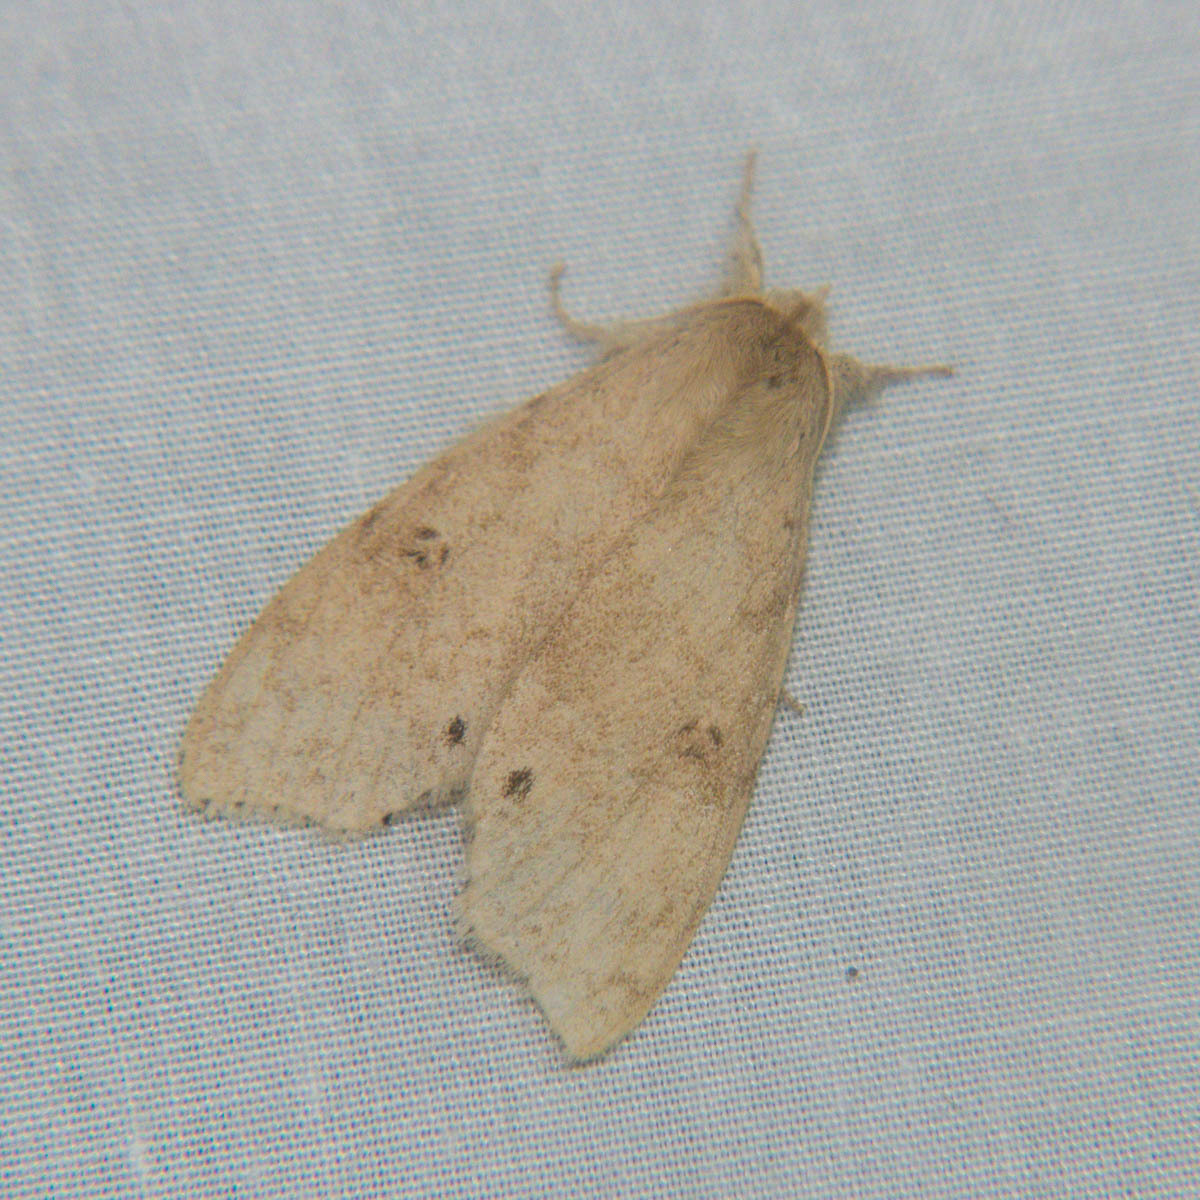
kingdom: Animalia
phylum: Arthropoda
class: Insecta
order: Lepidoptera
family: Erebidae
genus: Calliteara
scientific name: Calliteara angulata
